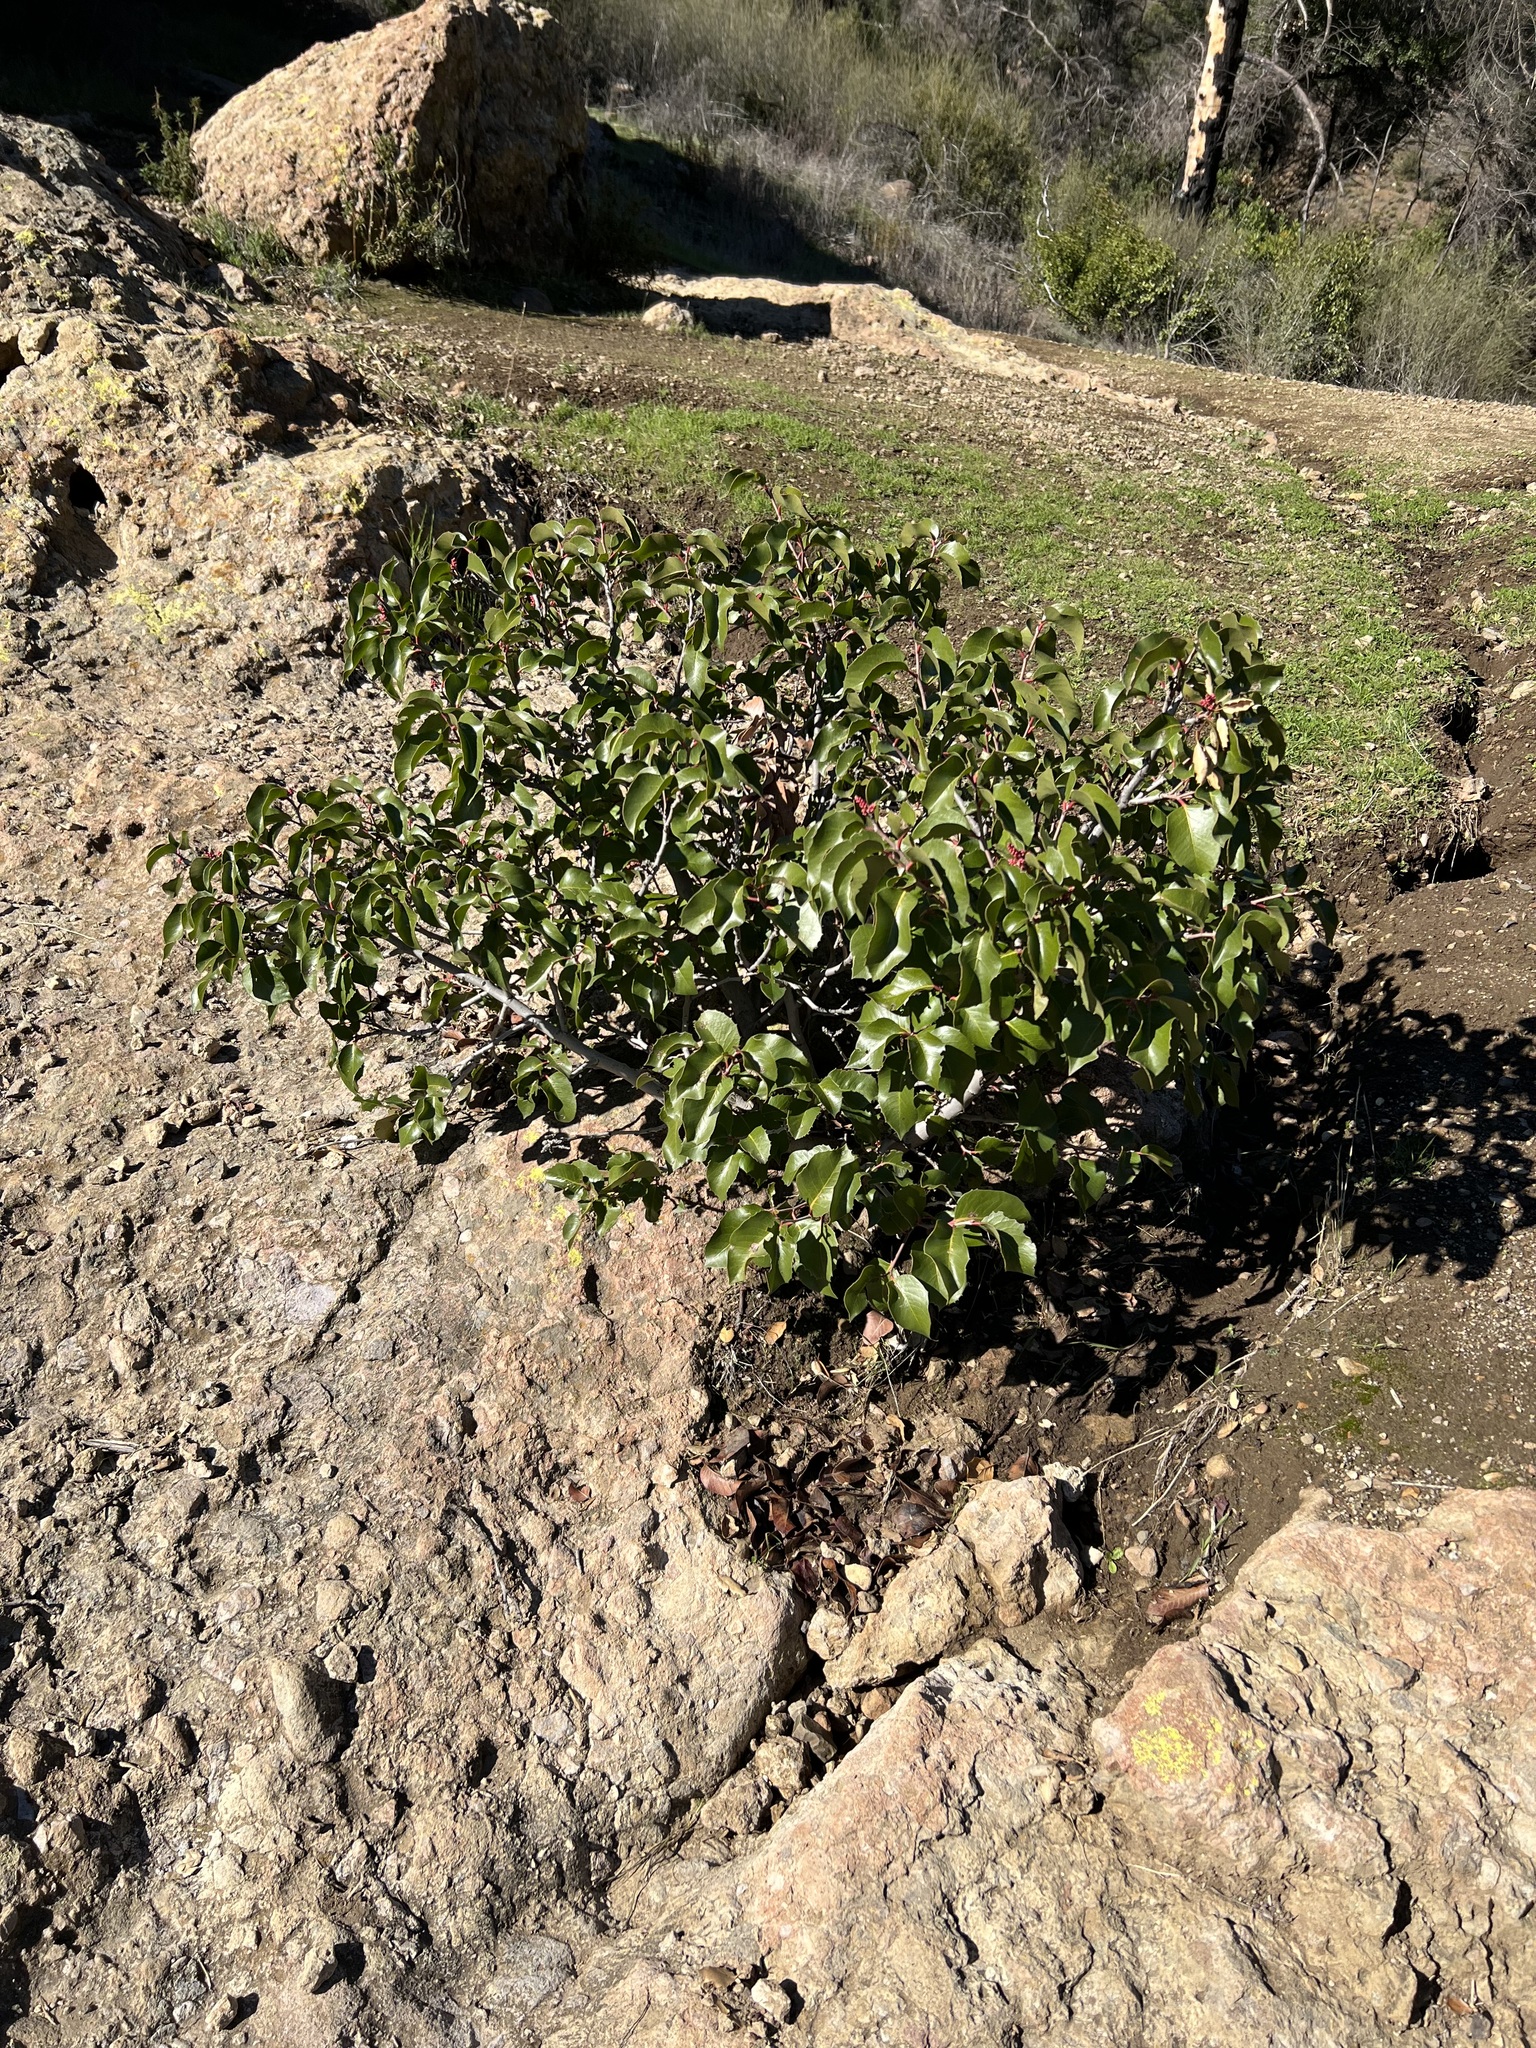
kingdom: Plantae
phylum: Tracheophyta
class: Magnoliopsida
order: Sapindales
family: Anacardiaceae
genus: Rhus
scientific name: Rhus ovata
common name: Sugar sumac
